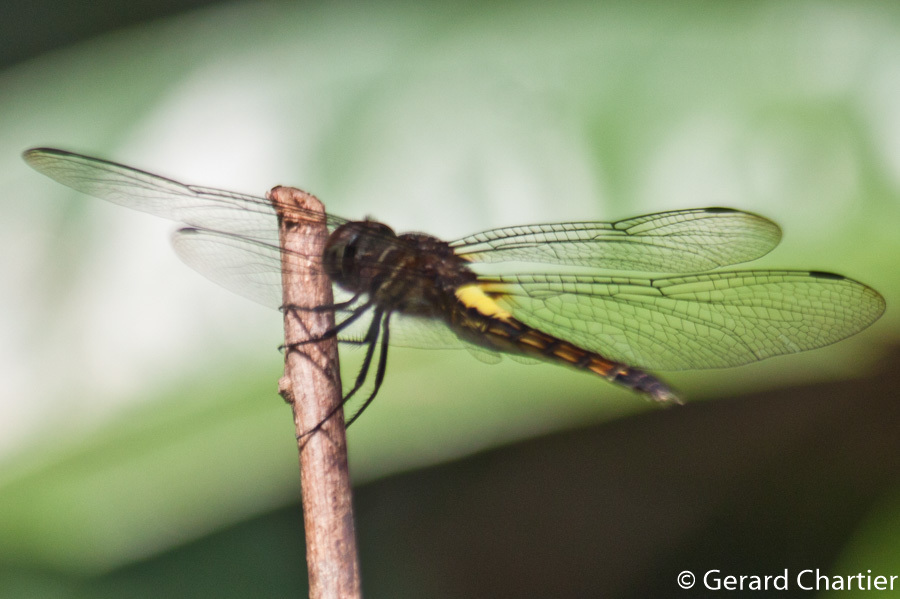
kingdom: Animalia
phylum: Arthropoda
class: Insecta
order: Odonata
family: Libellulidae
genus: Pseudothemis
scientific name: Pseudothemis jorina
